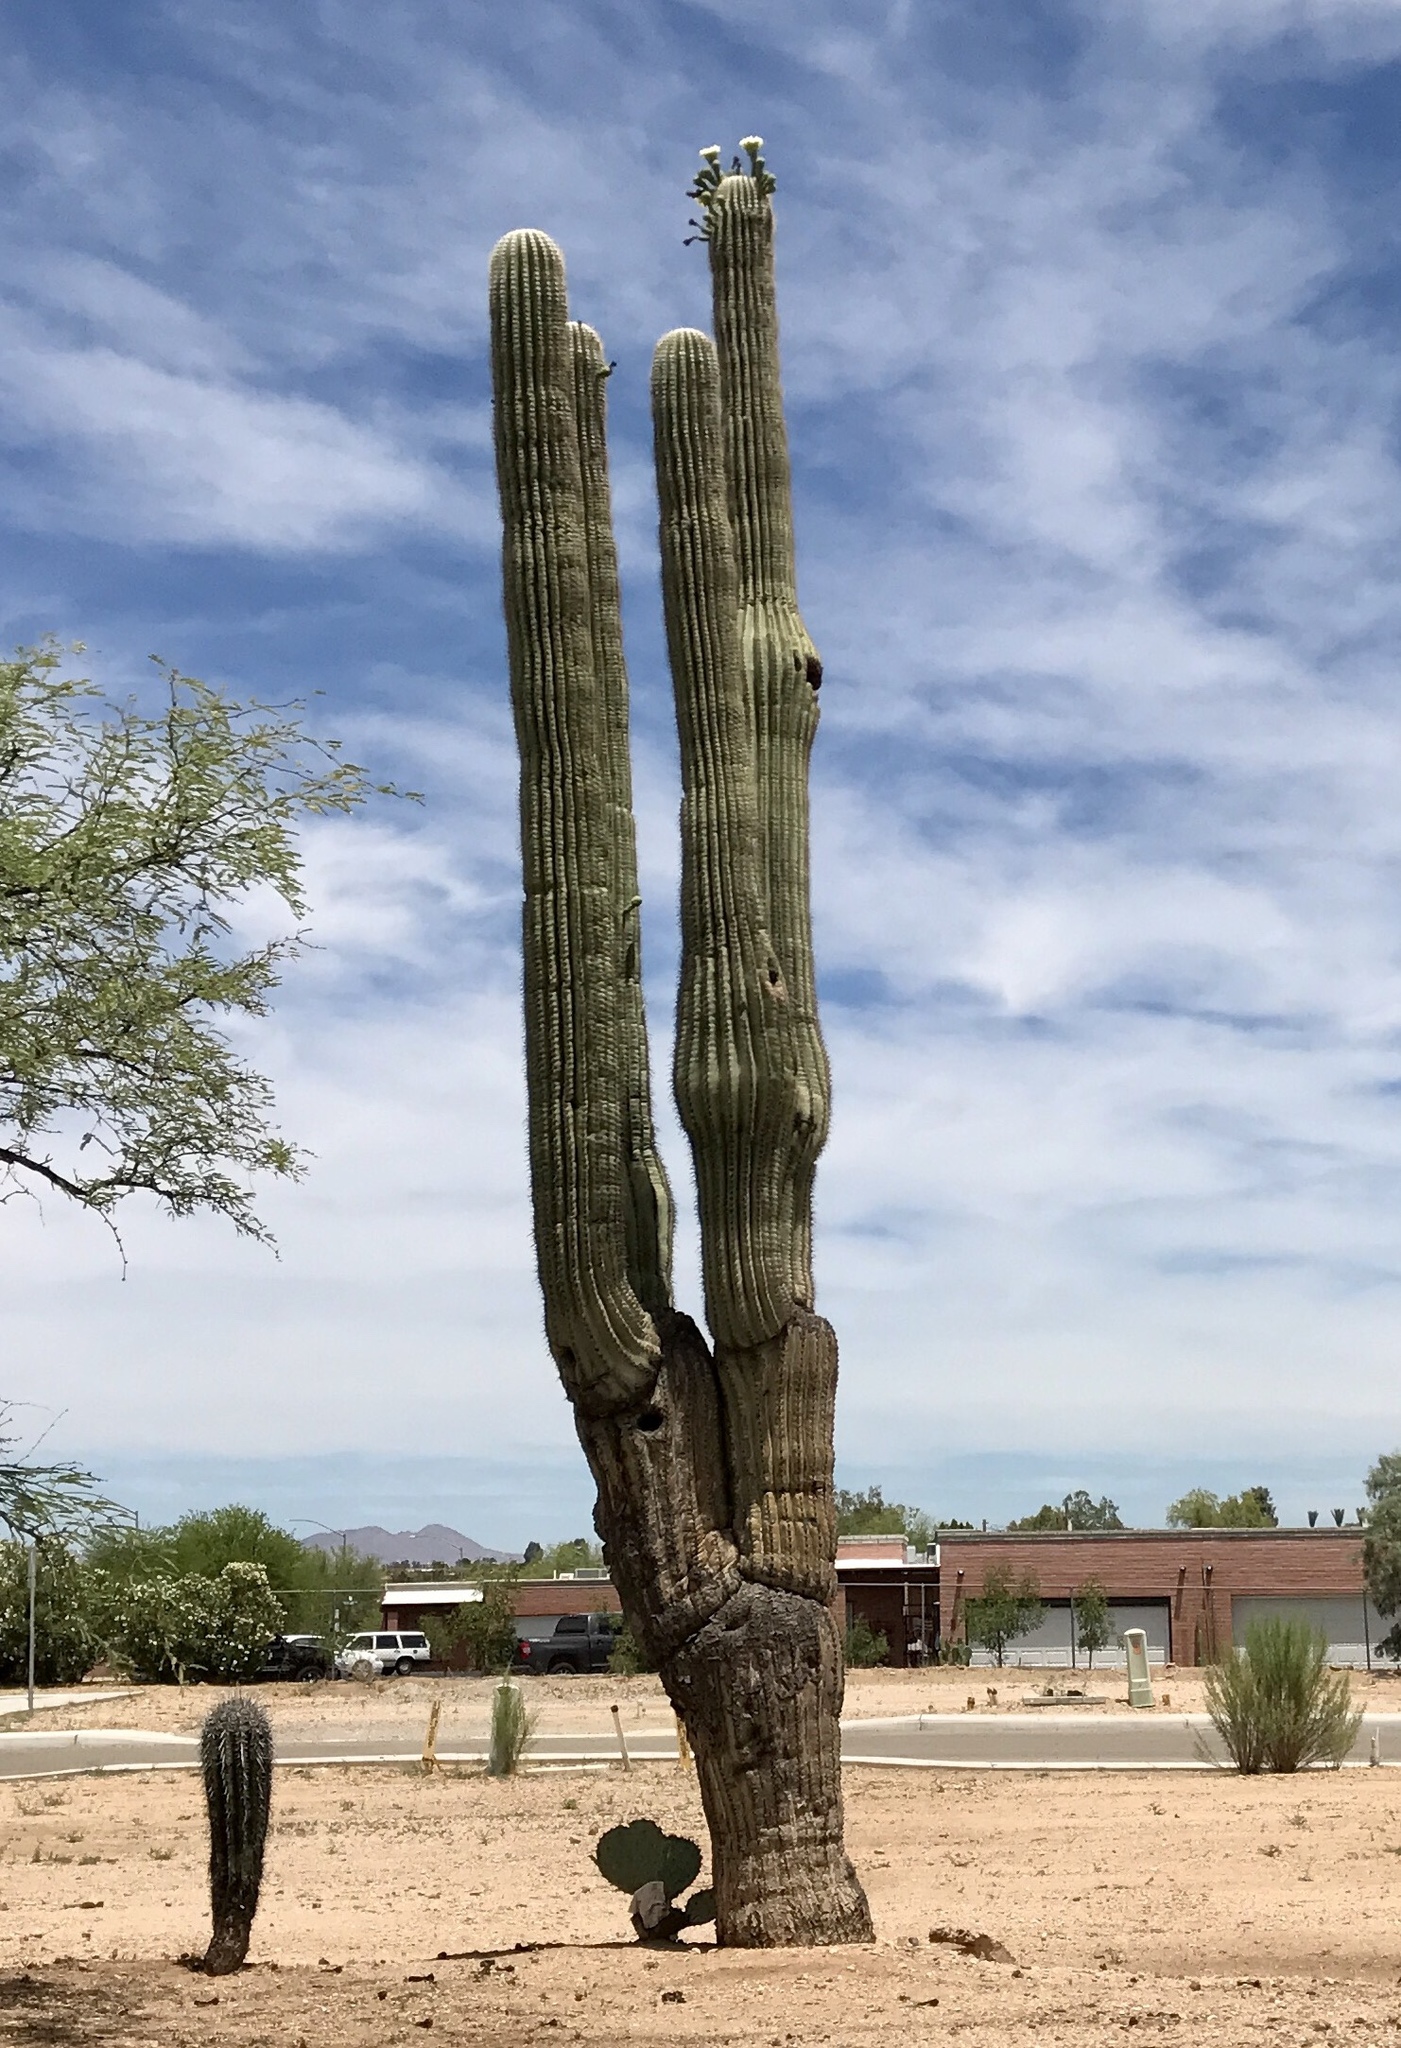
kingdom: Plantae
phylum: Tracheophyta
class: Magnoliopsida
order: Caryophyllales
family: Cactaceae
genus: Carnegiea
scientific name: Carnegiea gigantea
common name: Saguaro
